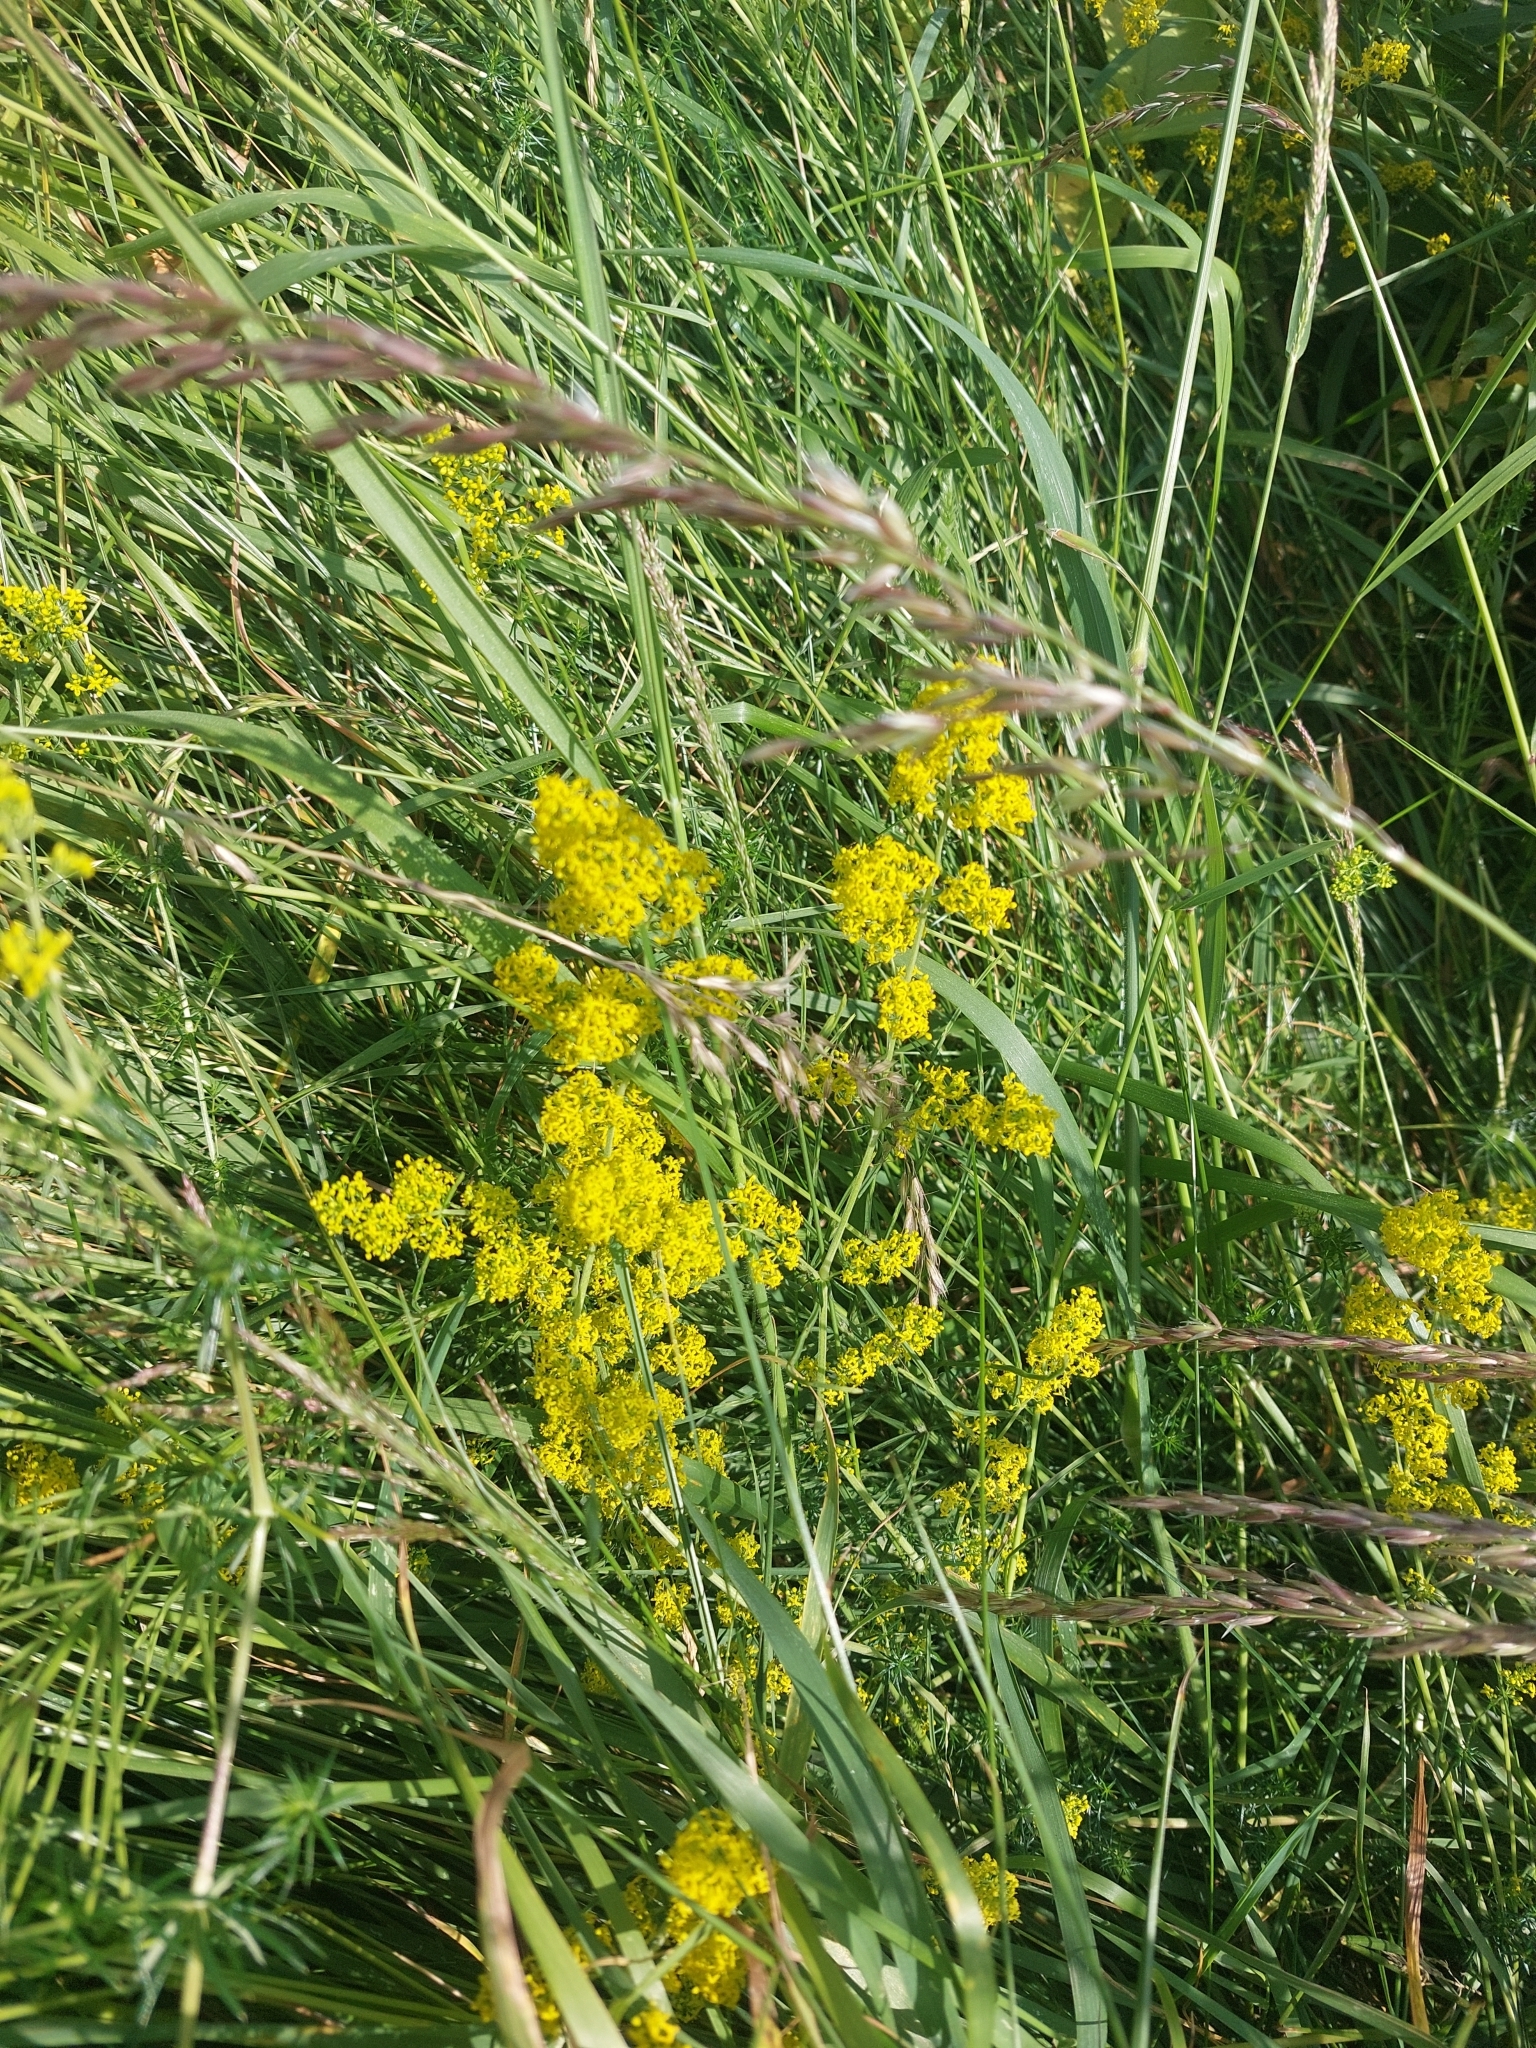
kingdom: Plantae
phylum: Tracheophyta
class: Magnoliopsida
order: Gentianales
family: Rubiaceae
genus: Galium
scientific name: Galium verum
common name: Lady's bedstraw
